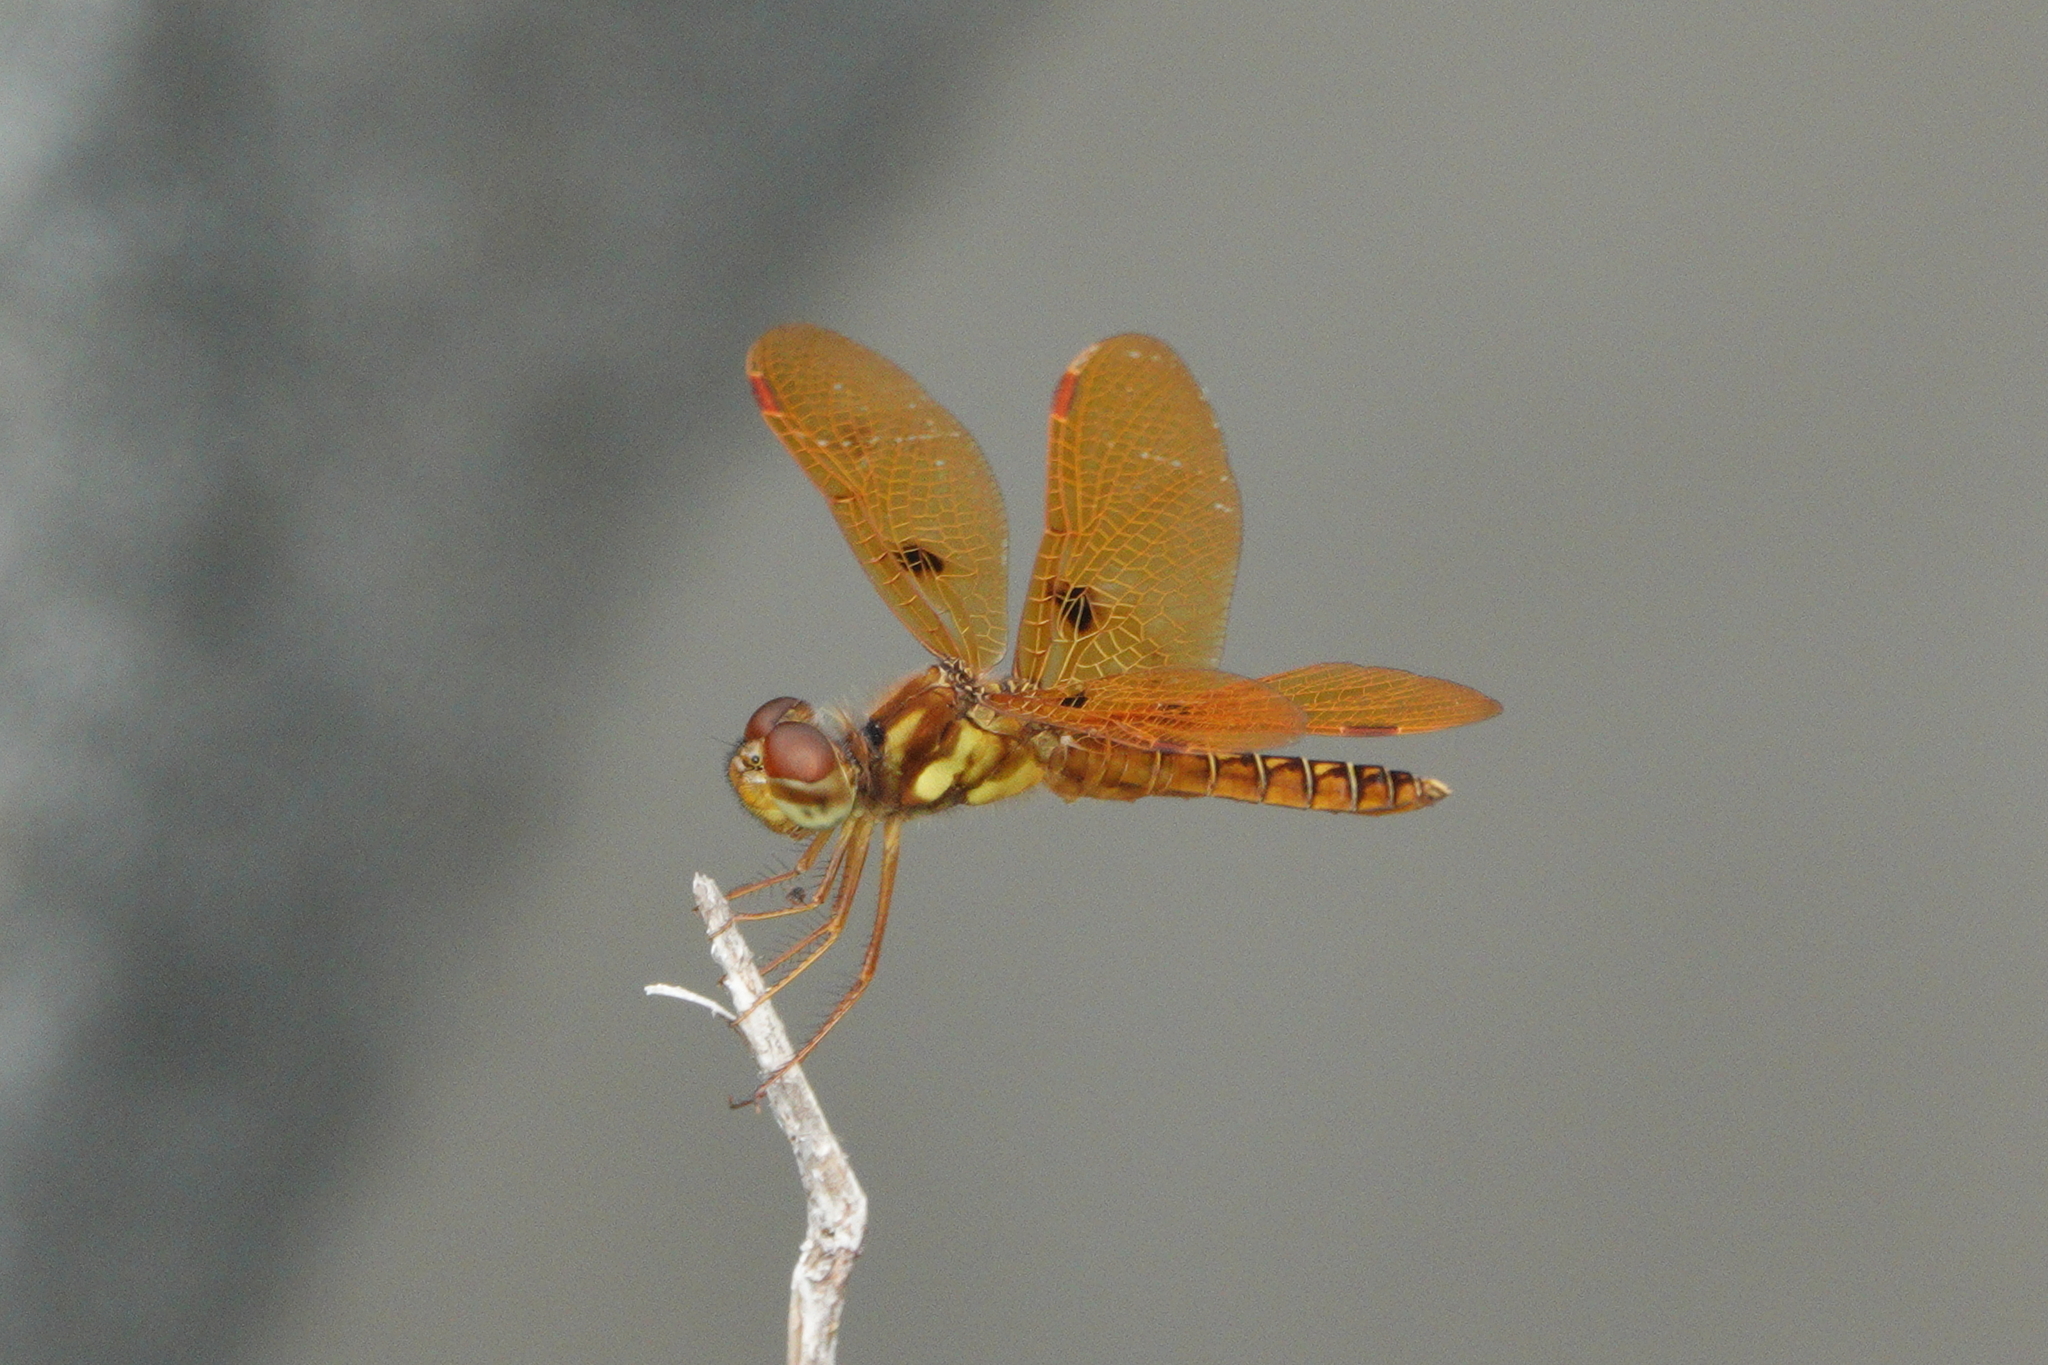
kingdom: Animalia
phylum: Arthropoda
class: Insecta
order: Odonata
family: Libellulidae
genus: Perithemis
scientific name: Perithemis tenera
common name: Eastern amberwing
